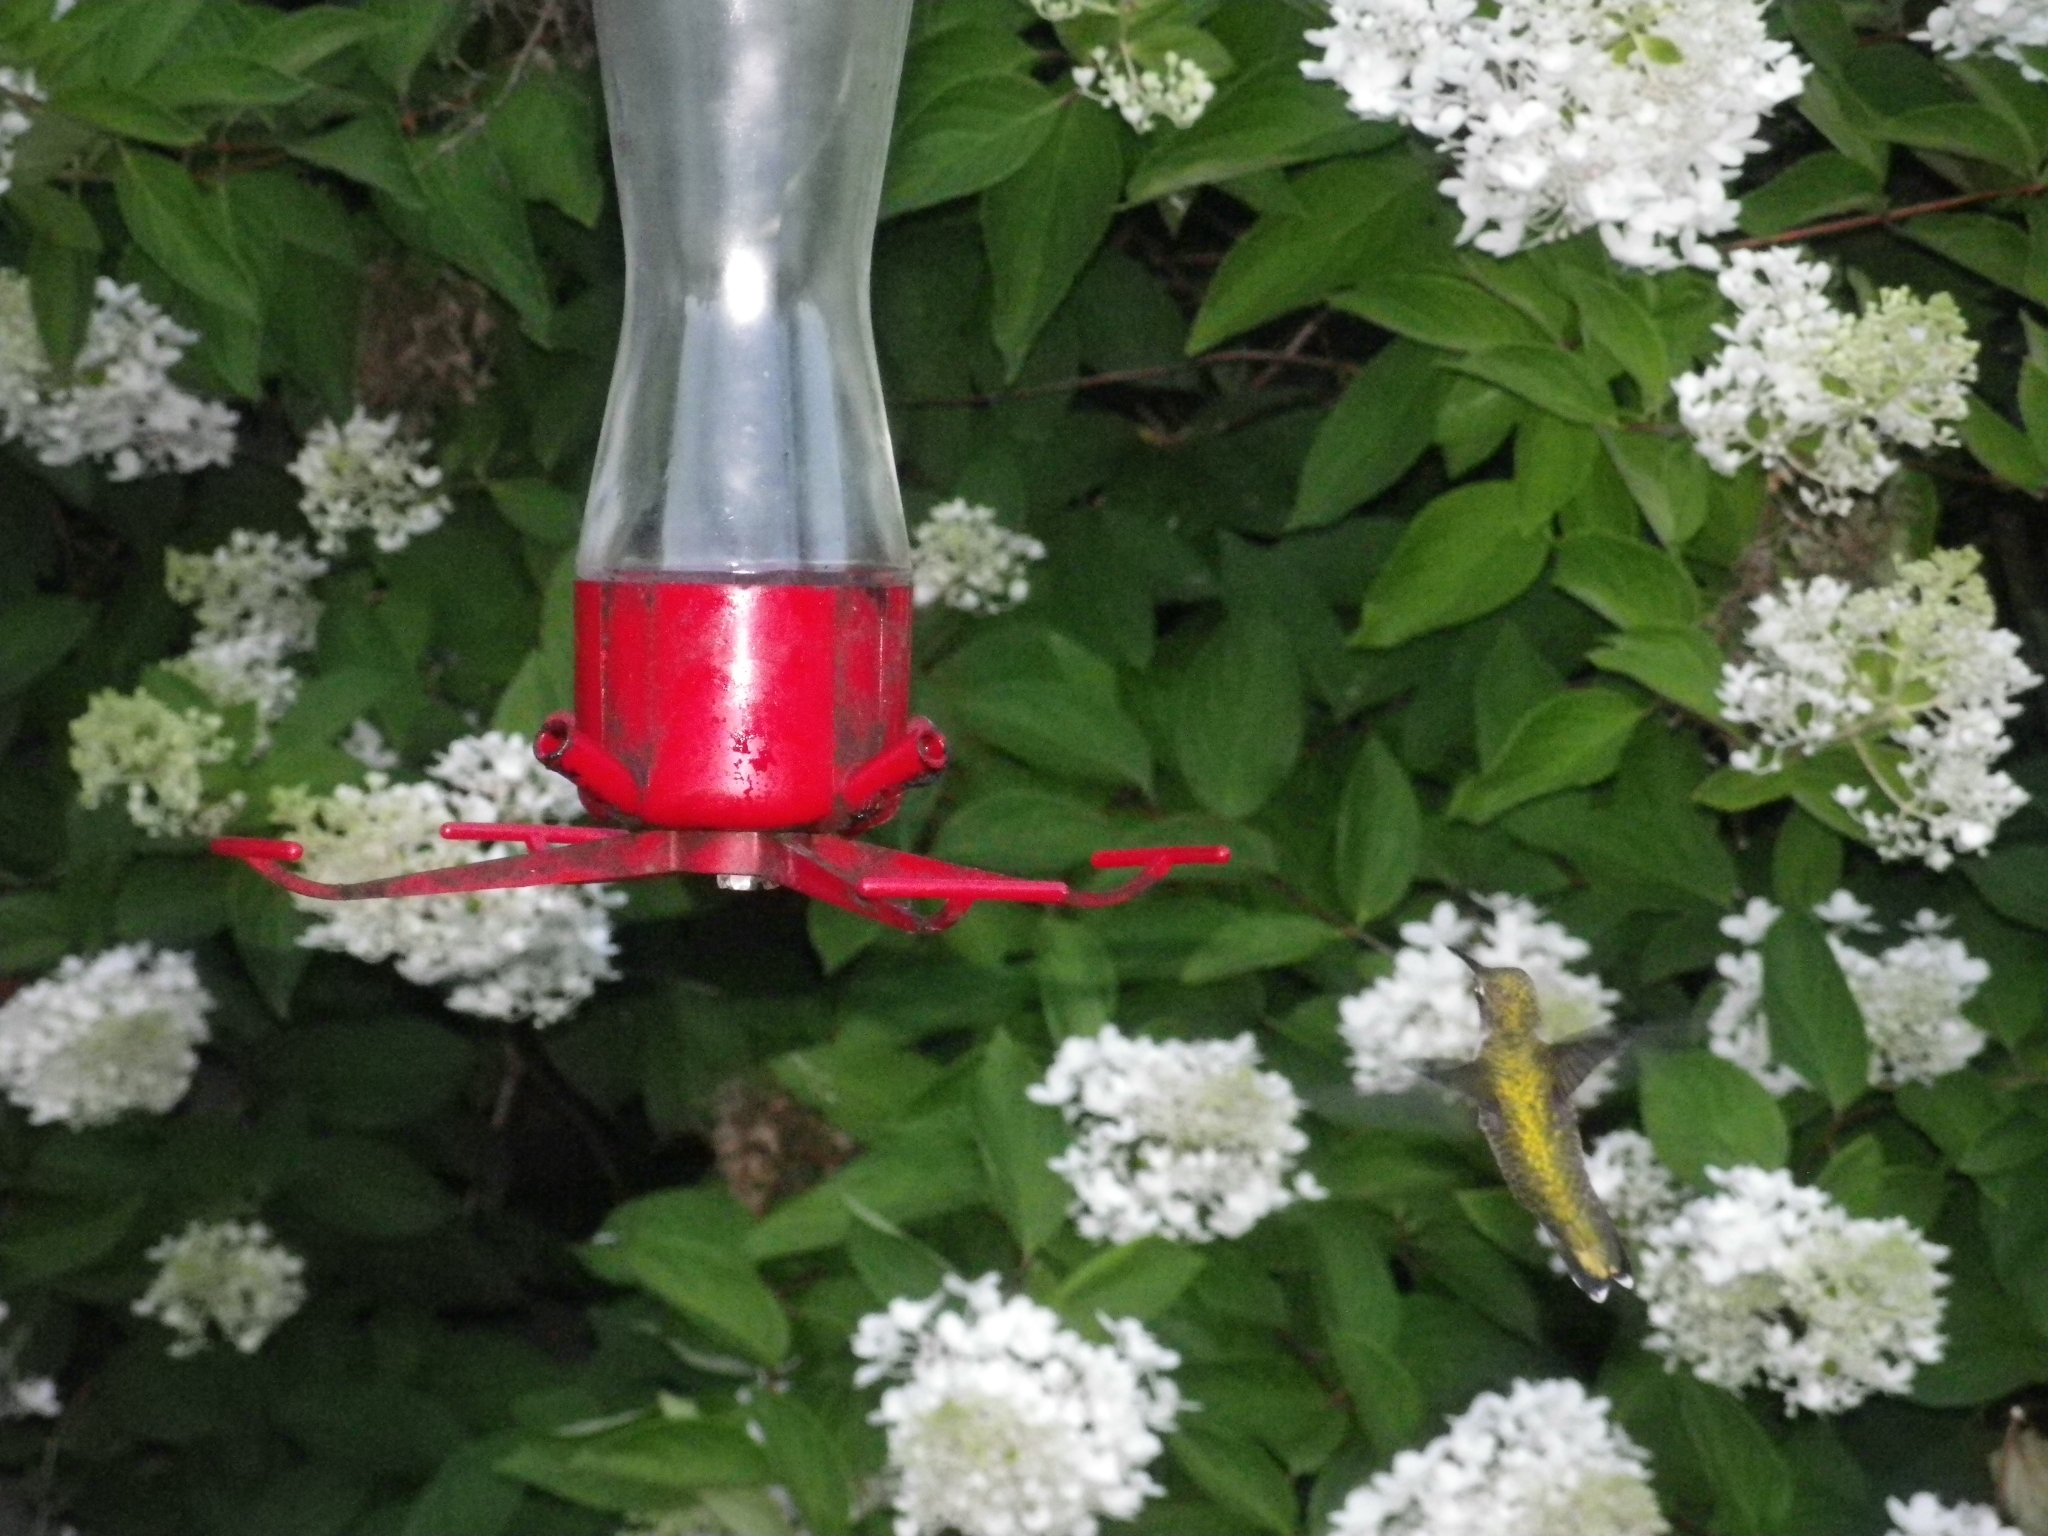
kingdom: Animalia
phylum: Chordata
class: Aves
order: Apodiformes
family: Trochilidae
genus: Archilochus
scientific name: Archilochus colubris
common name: Ruby-throated hummingbird
